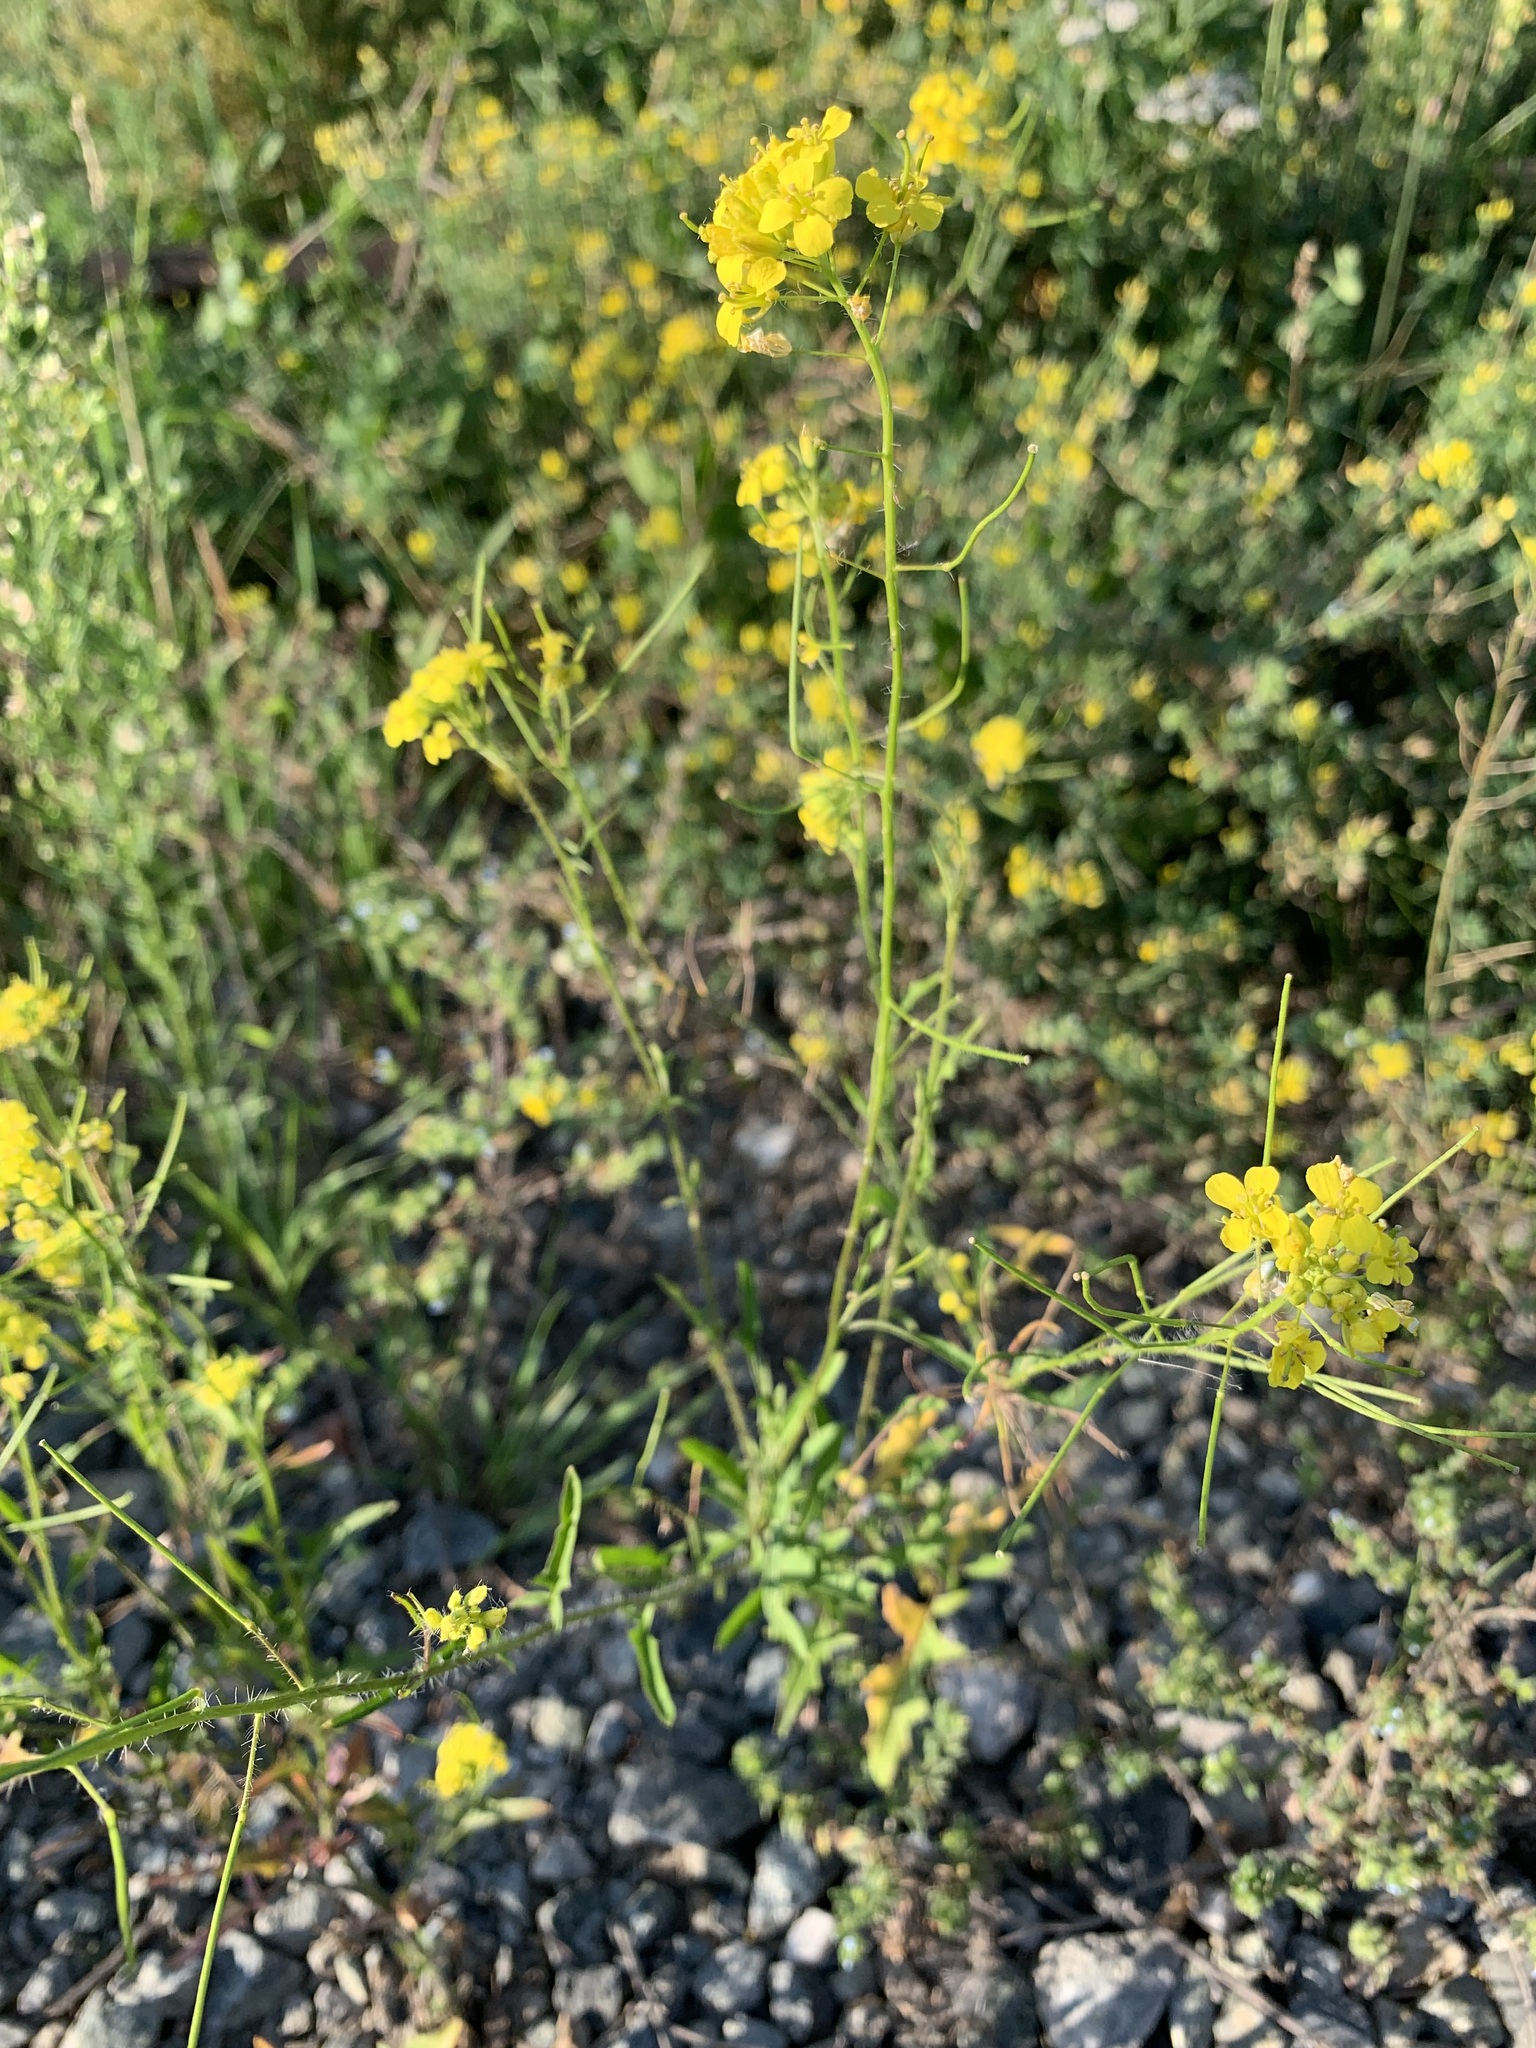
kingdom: Plantae
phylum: Tracheophyta
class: Magnoliopsida
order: Brassicales
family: Brassicaceae
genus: Sisymbrium
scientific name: Sisymbrium loeselii
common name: False london-rocket
